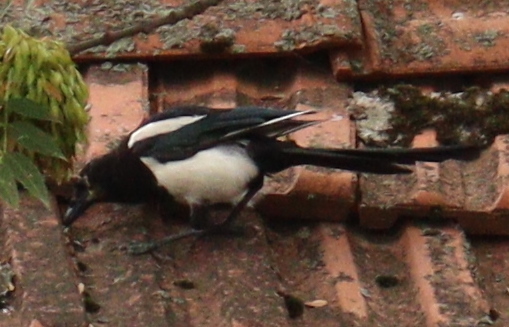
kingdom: Animalia
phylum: Chordata
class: Aves
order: Passeriformes
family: Corvidae
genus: Pica
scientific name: Pica pica
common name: Eurasian magpie
